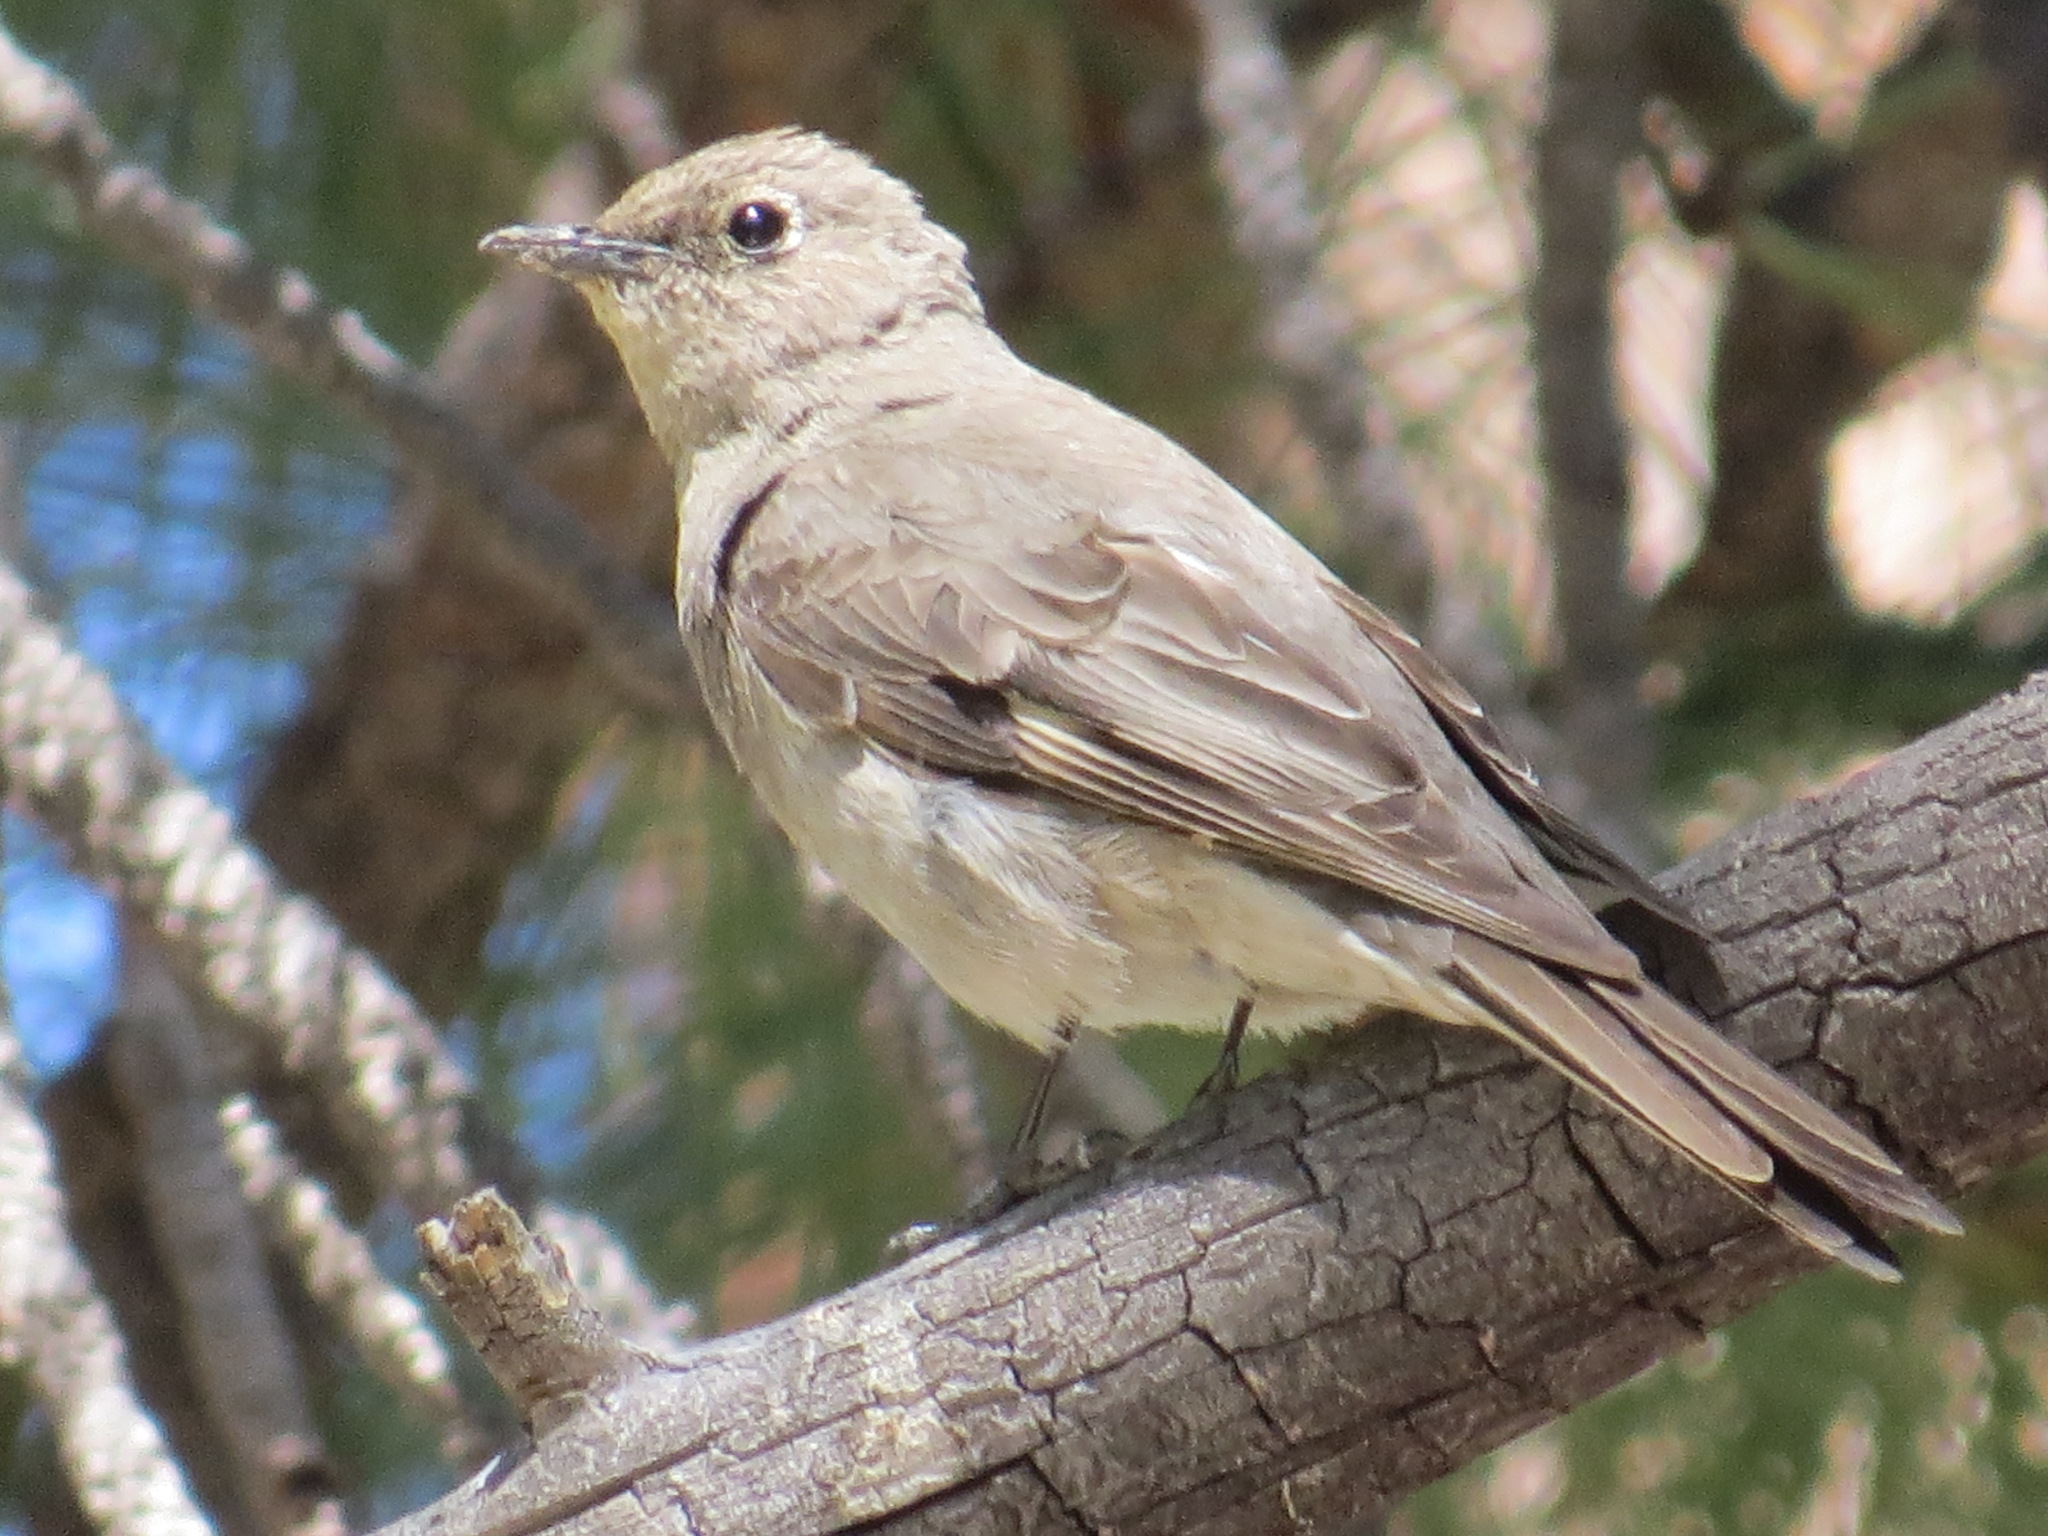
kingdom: Animalia
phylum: Chordata
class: Aves
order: Passeriformes
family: Turdidae
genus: Myadestes
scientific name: Myadestes townsendi
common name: Townsend's solitaire
